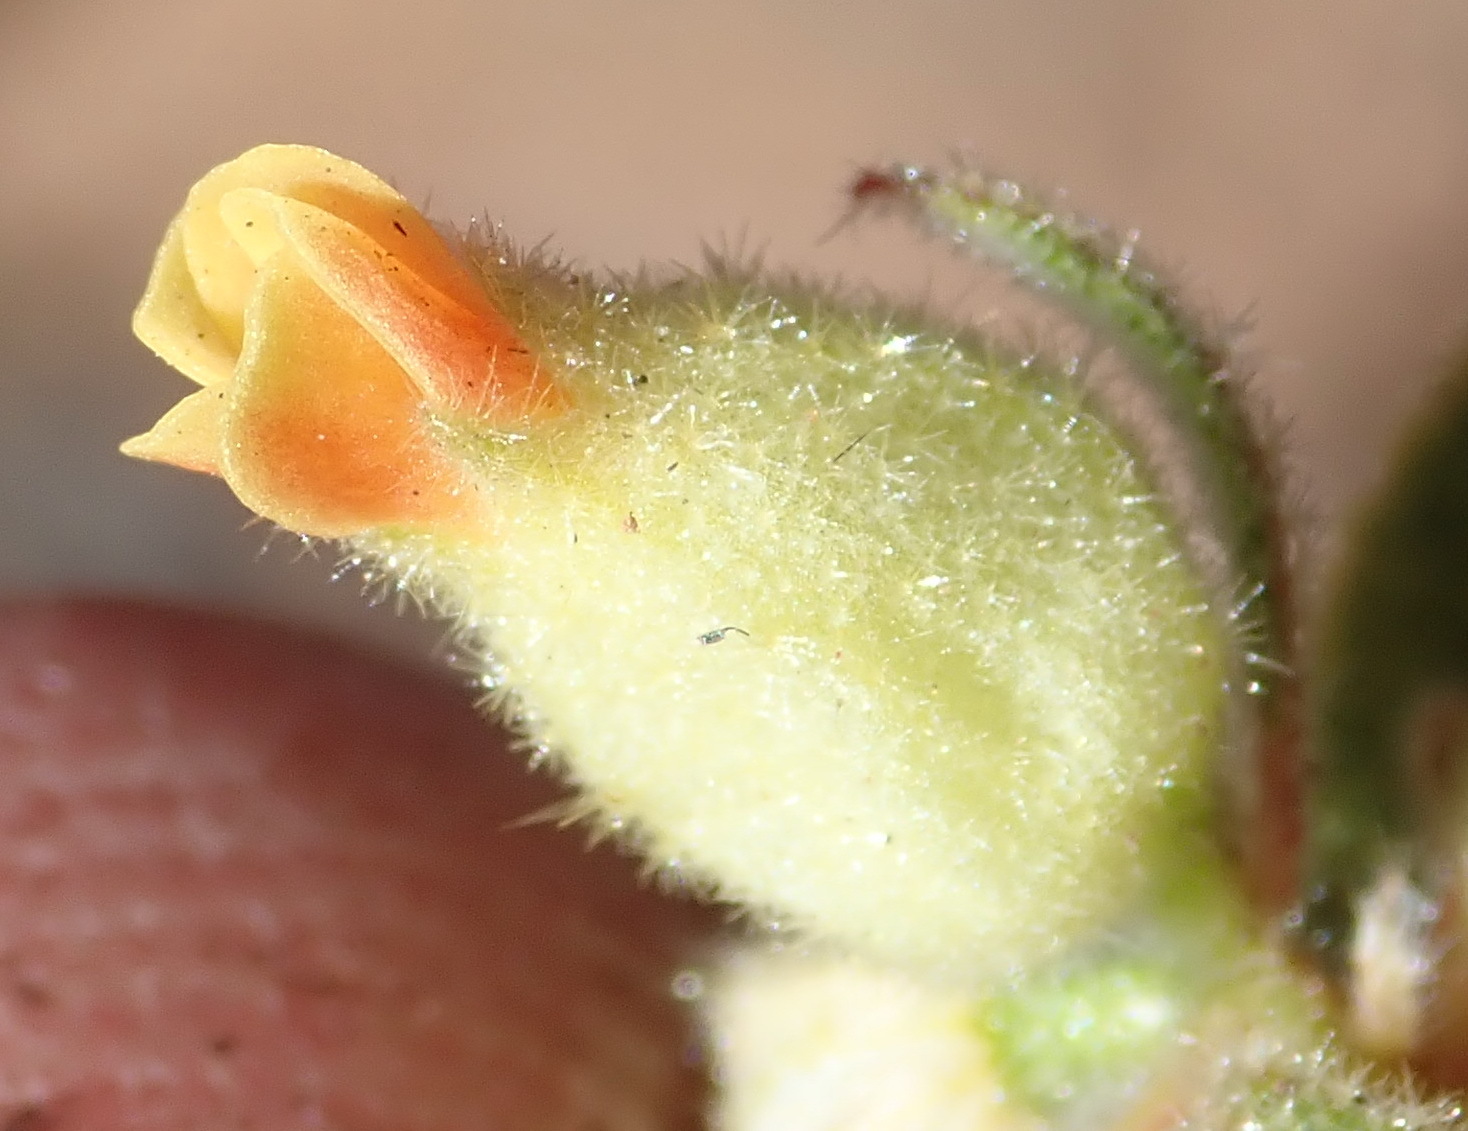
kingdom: Plantae
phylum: Tracheophyta
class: Magnoliopsida
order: Malvales
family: Malvaceae
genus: Hermannia
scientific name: Hermannia salviifolia
